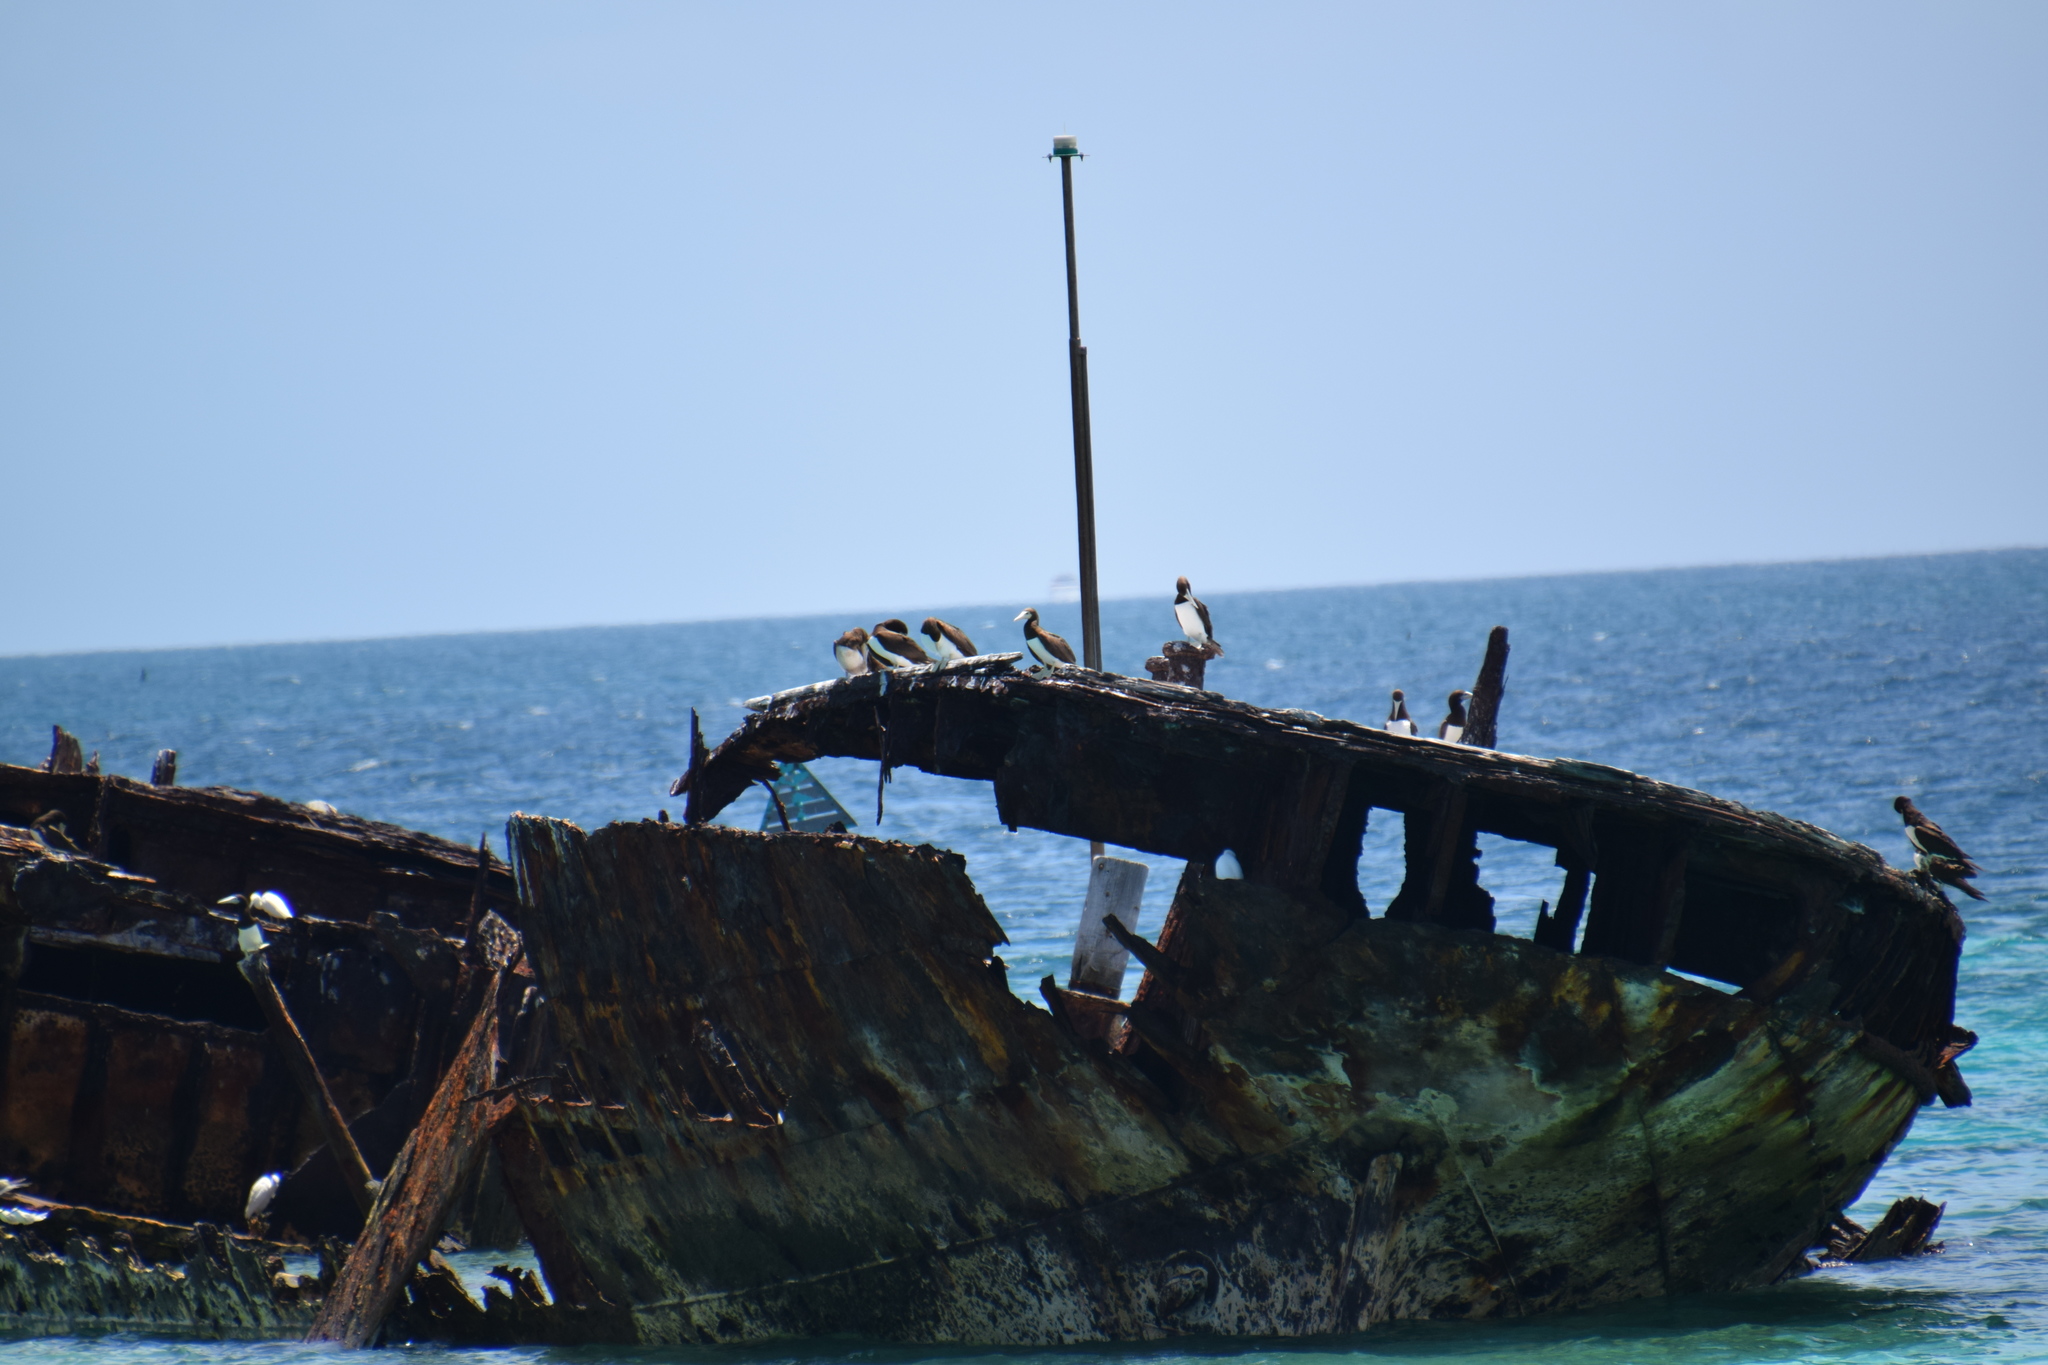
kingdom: Animalia
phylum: Chordata
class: Aves
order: Suliformes
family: Sulidae
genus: Sula
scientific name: Sula leucogaster
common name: Brown booby
